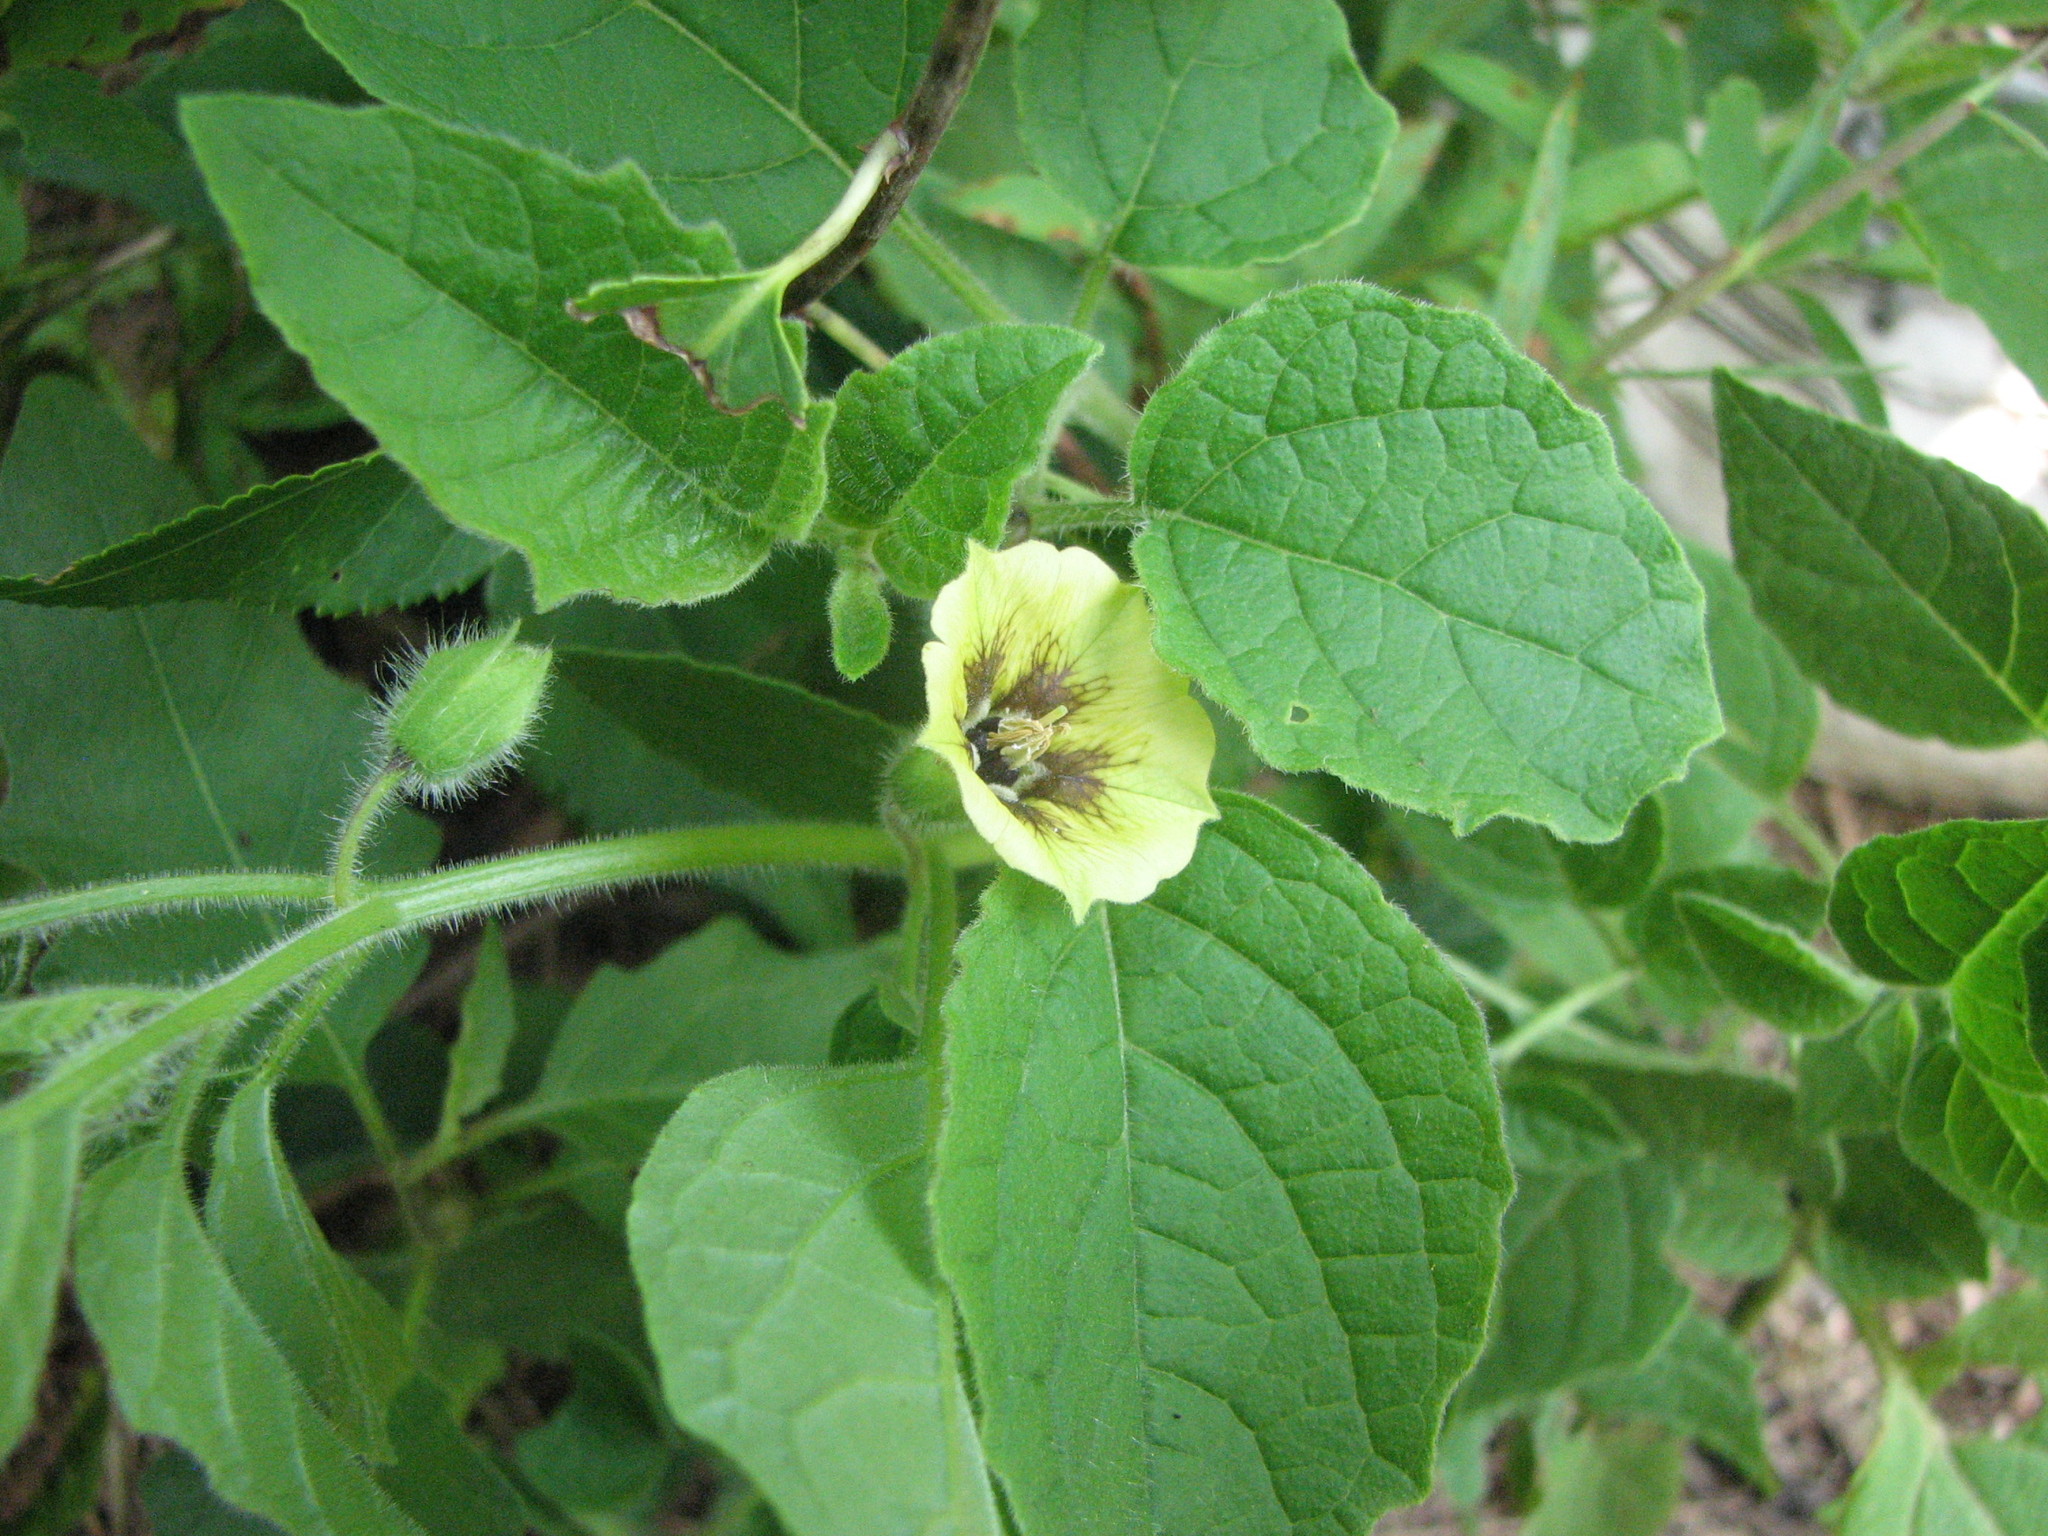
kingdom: Plantae
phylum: Tracheophyta
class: Magnoliopsida
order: Solanales
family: Solanaceae
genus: Physalis
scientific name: Physalis heterophylla
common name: Clammy ground-cherry
